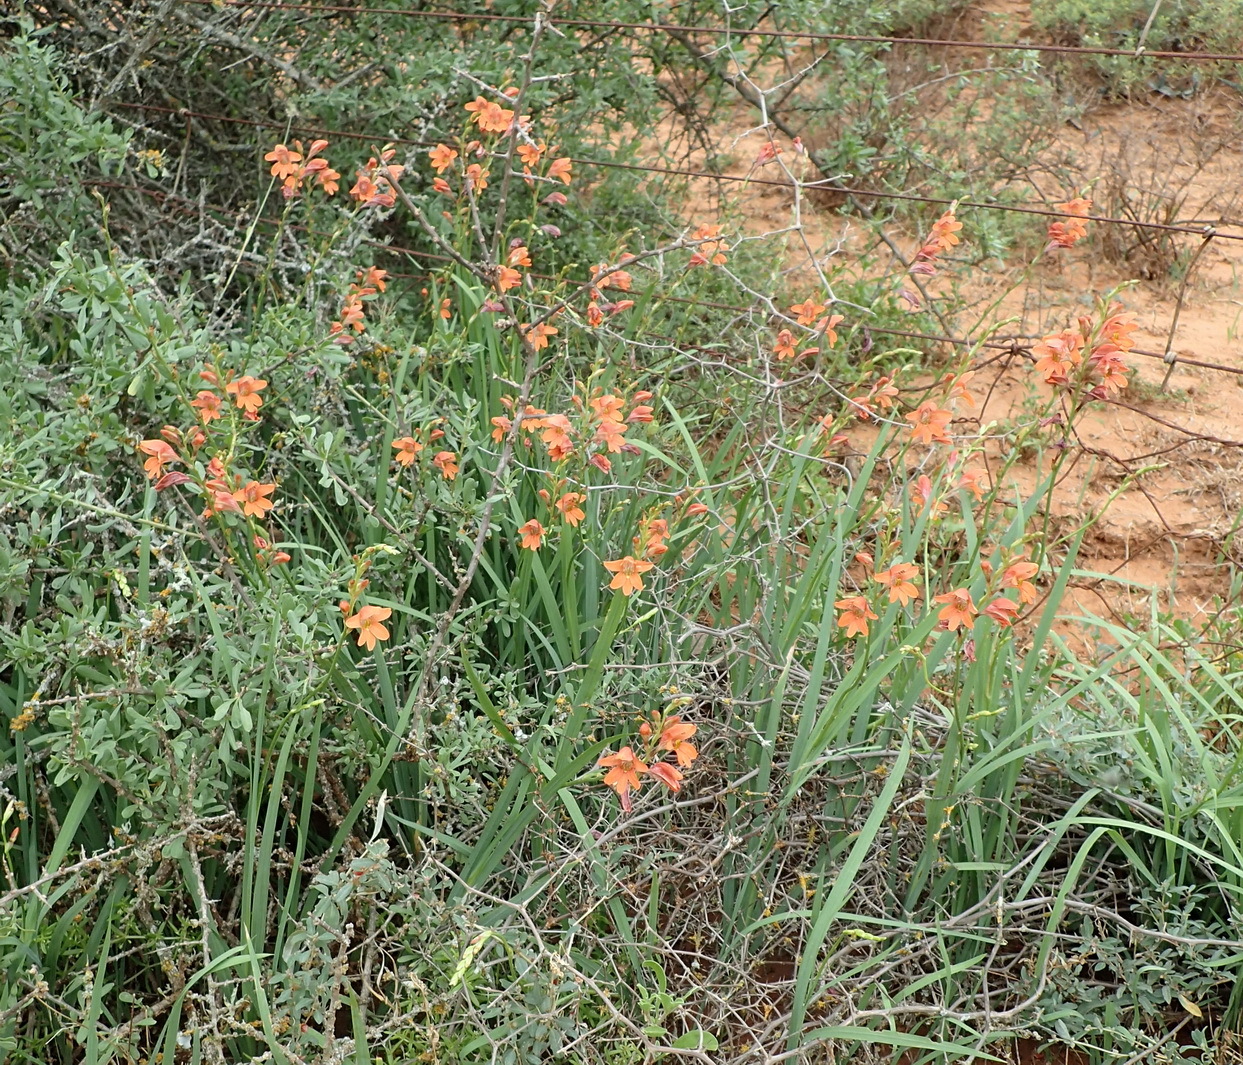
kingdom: Plantae
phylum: Tracheophyta
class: Liliopsida
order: Asparagales
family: Iridaceae
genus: Tritonia
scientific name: Tritonia laxifolia
